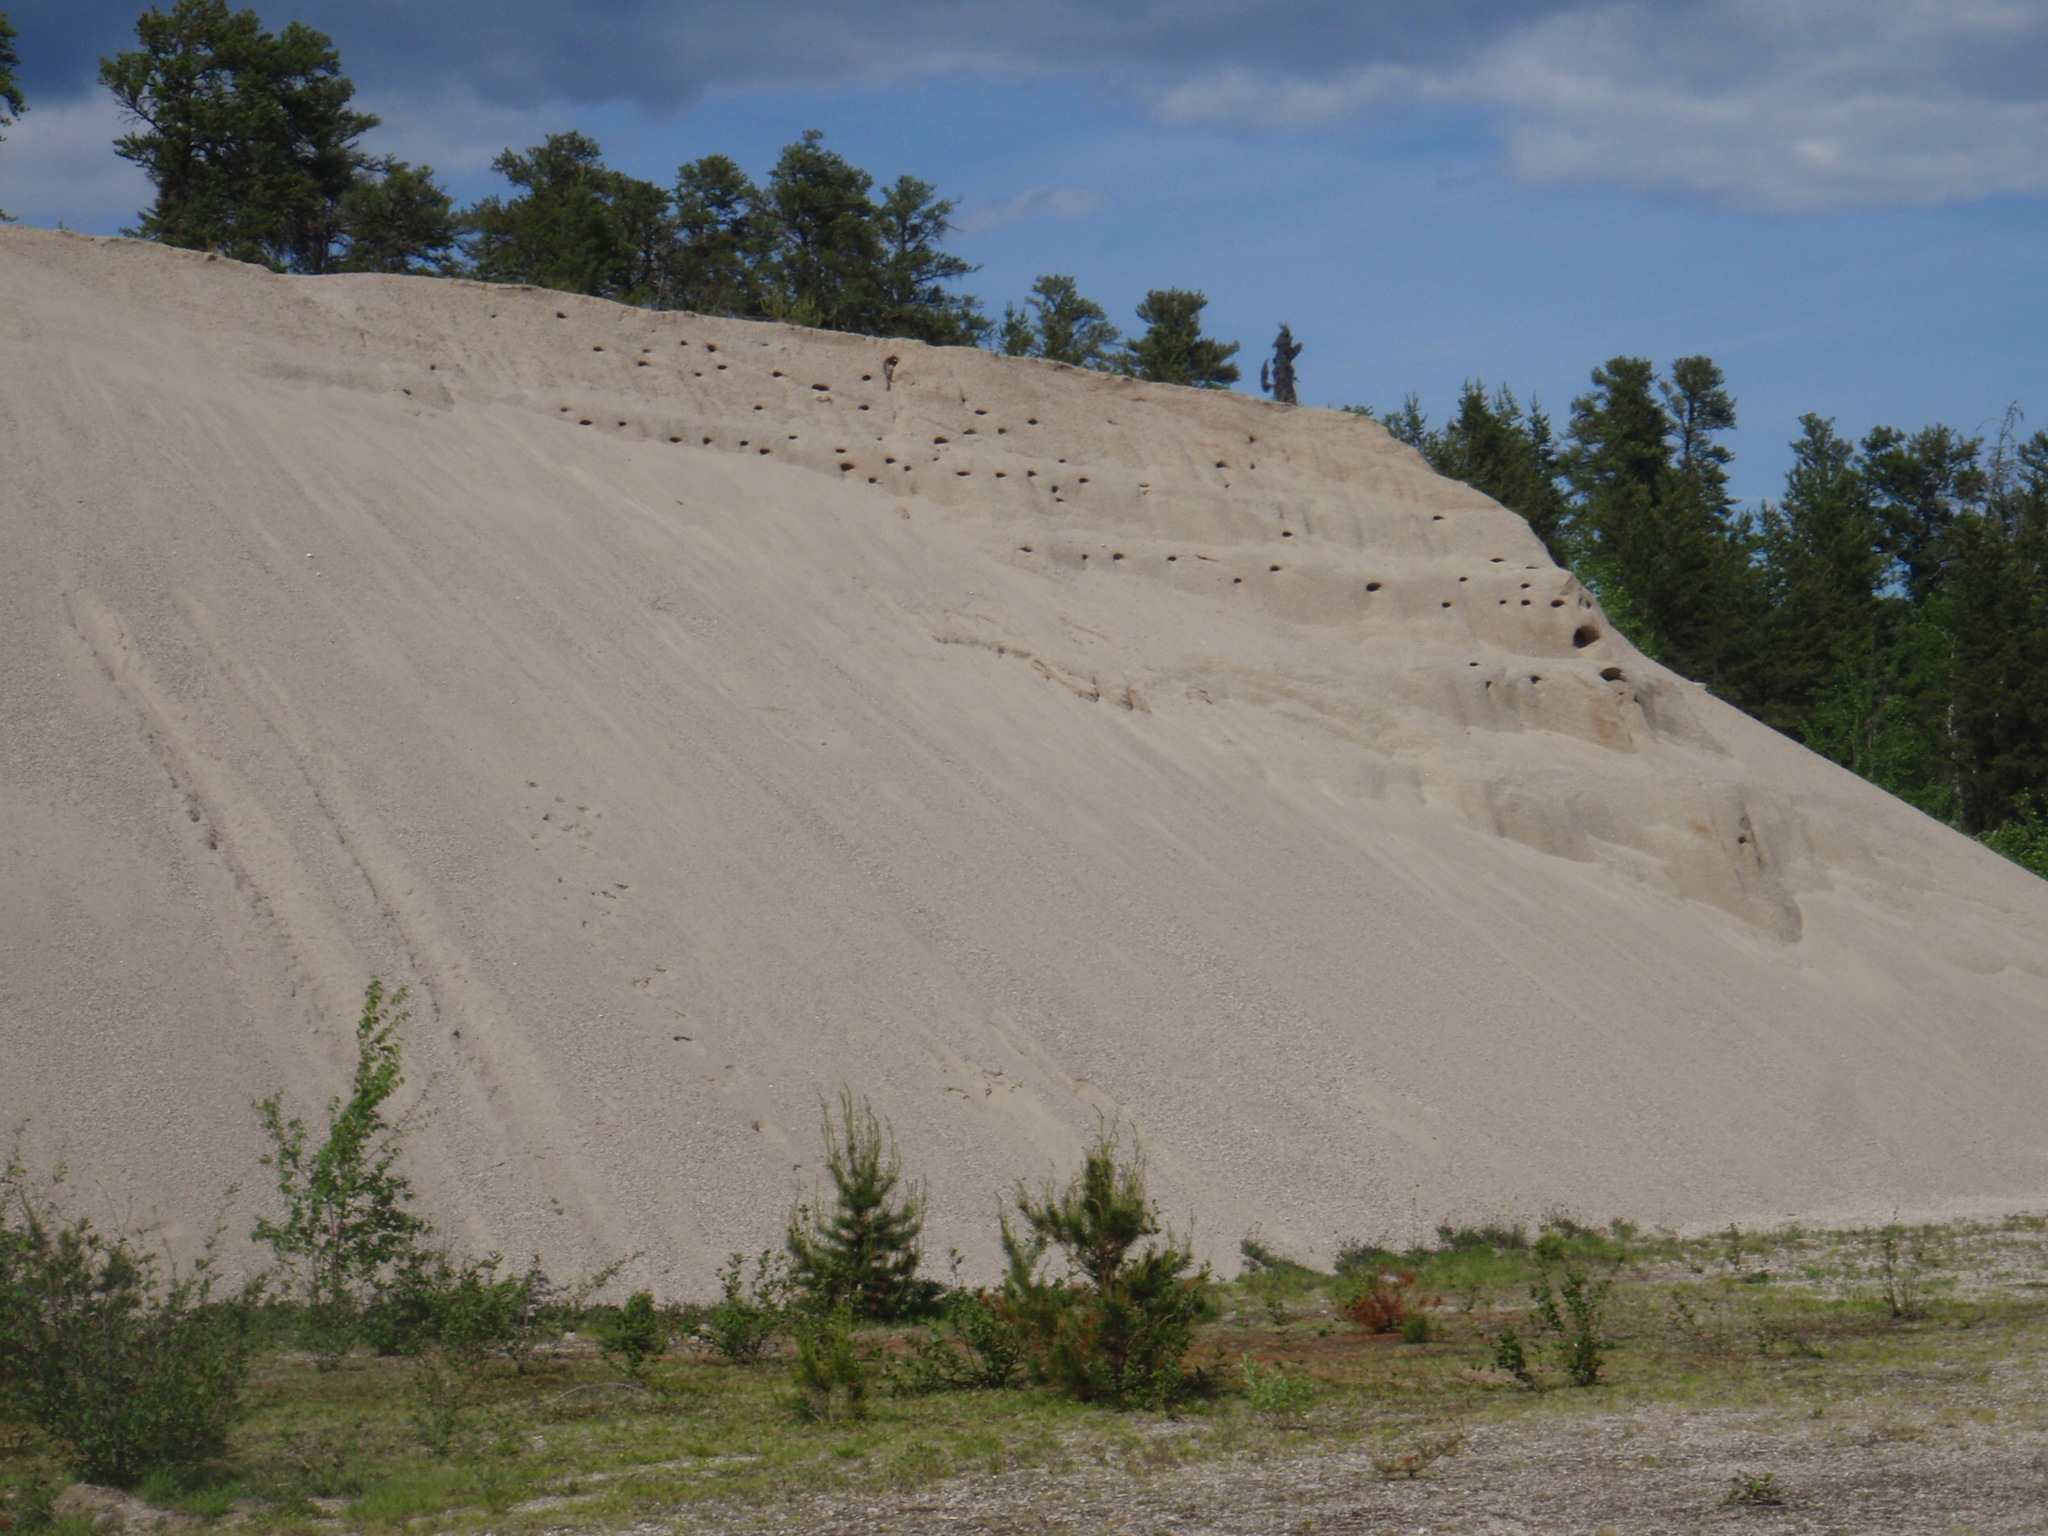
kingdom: Animalia
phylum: Chordata
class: Aves
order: Passeriformes
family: Hirundinidae
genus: Riparia
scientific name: Riparia riparia
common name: Sand martin
